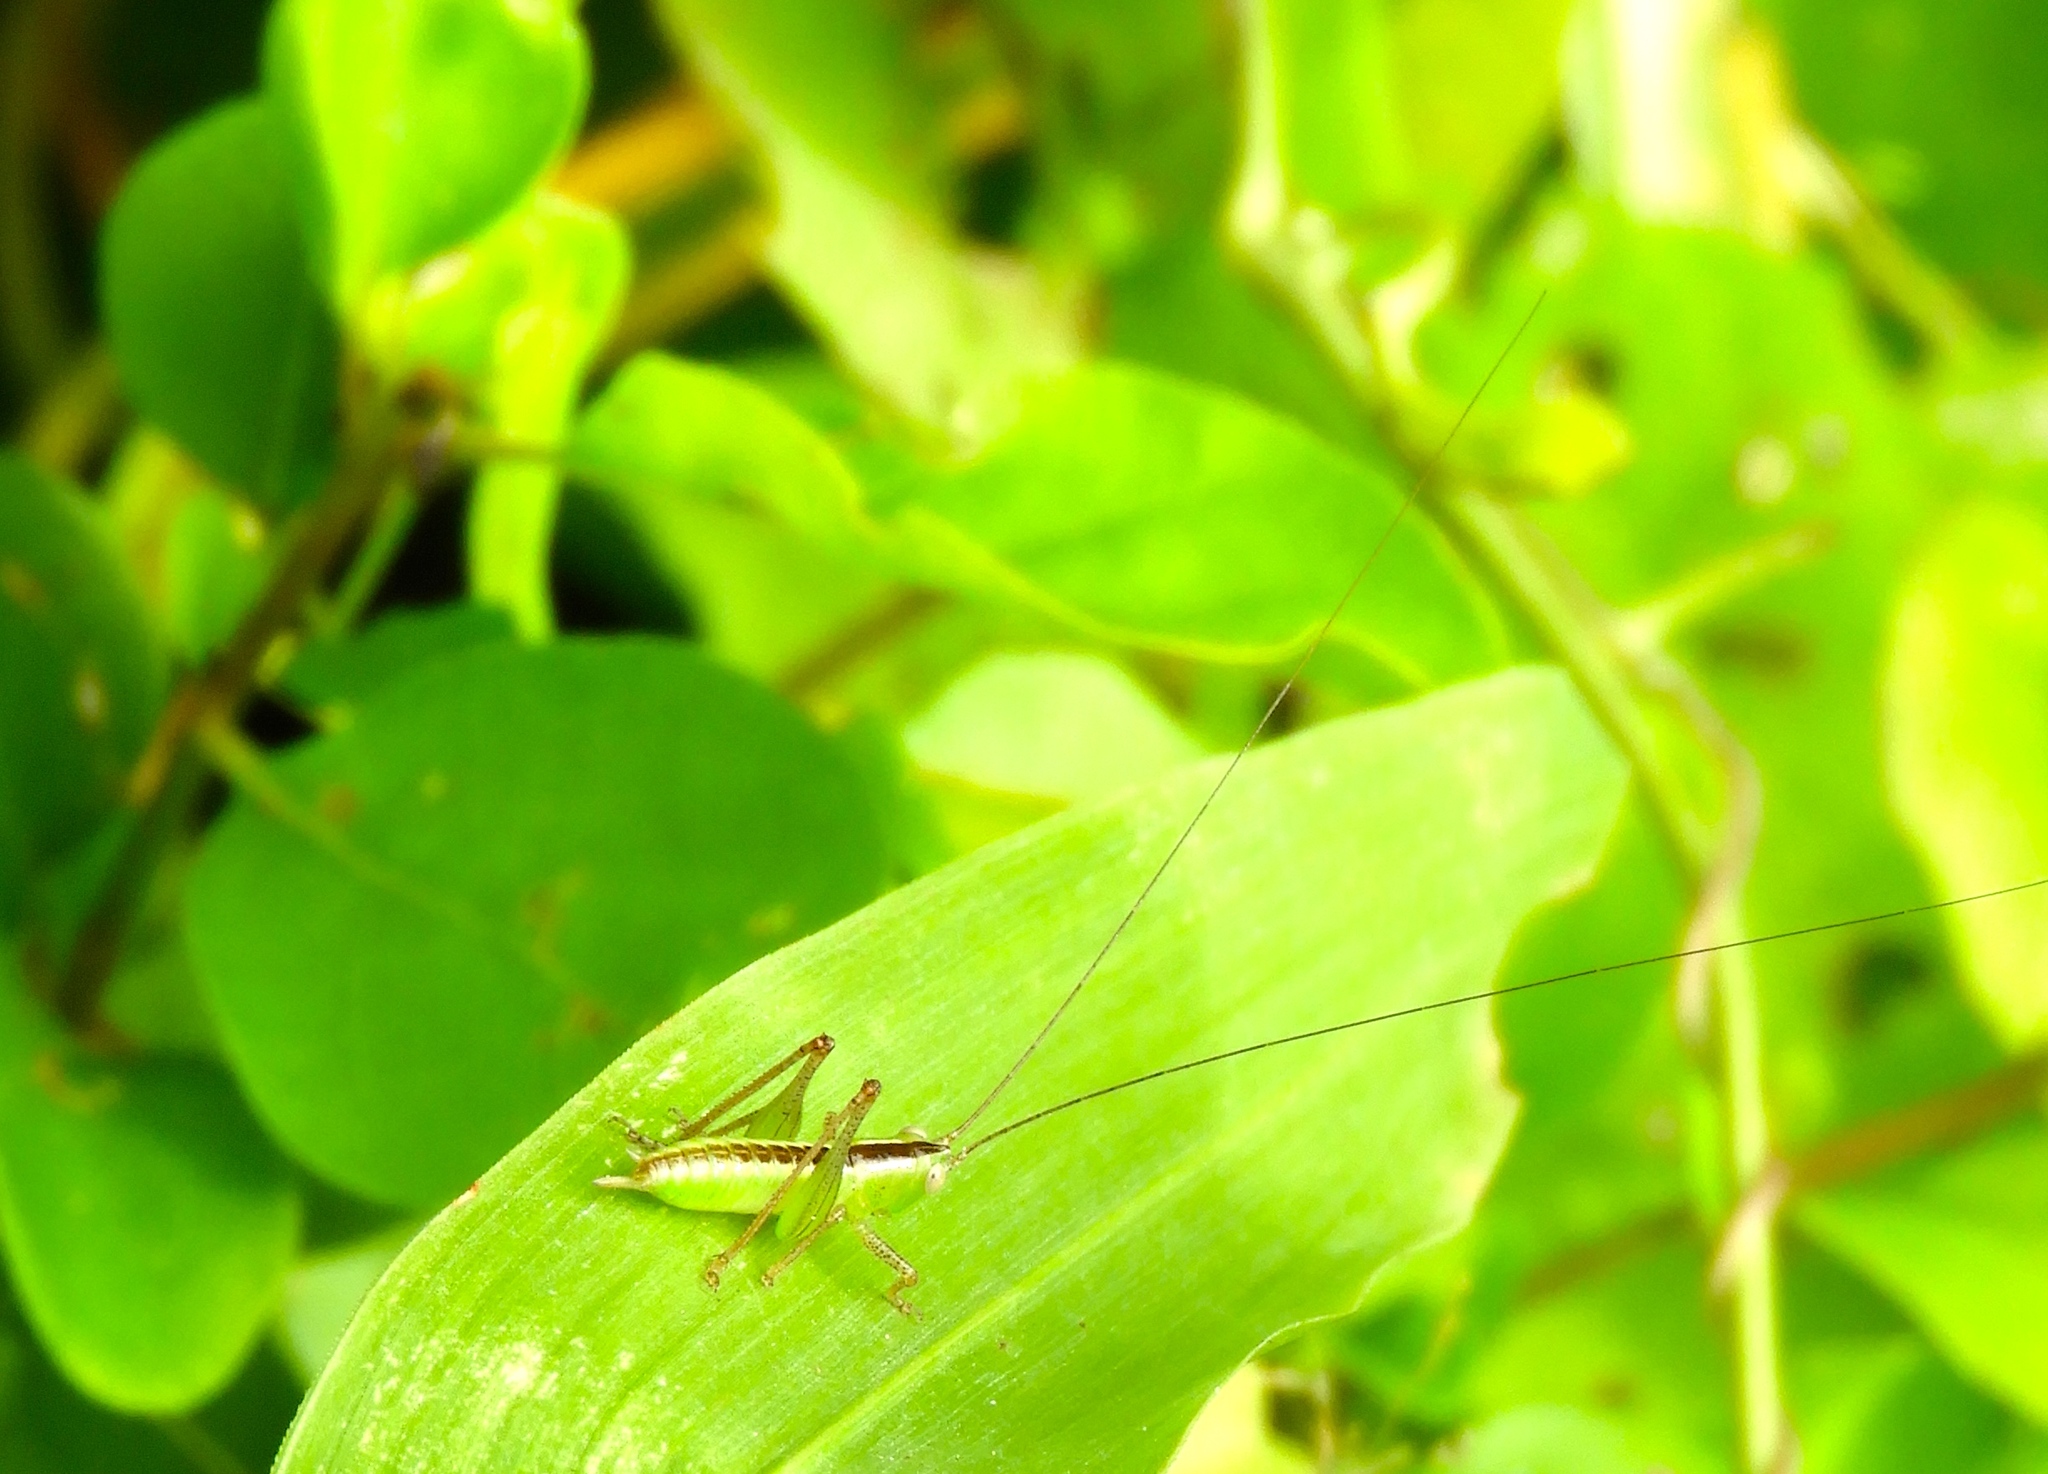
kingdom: Animalia
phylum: Arthropoda
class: Insecta
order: Orthoptera
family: Tettigoniidae
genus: Conocephalus
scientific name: Conocephalus
